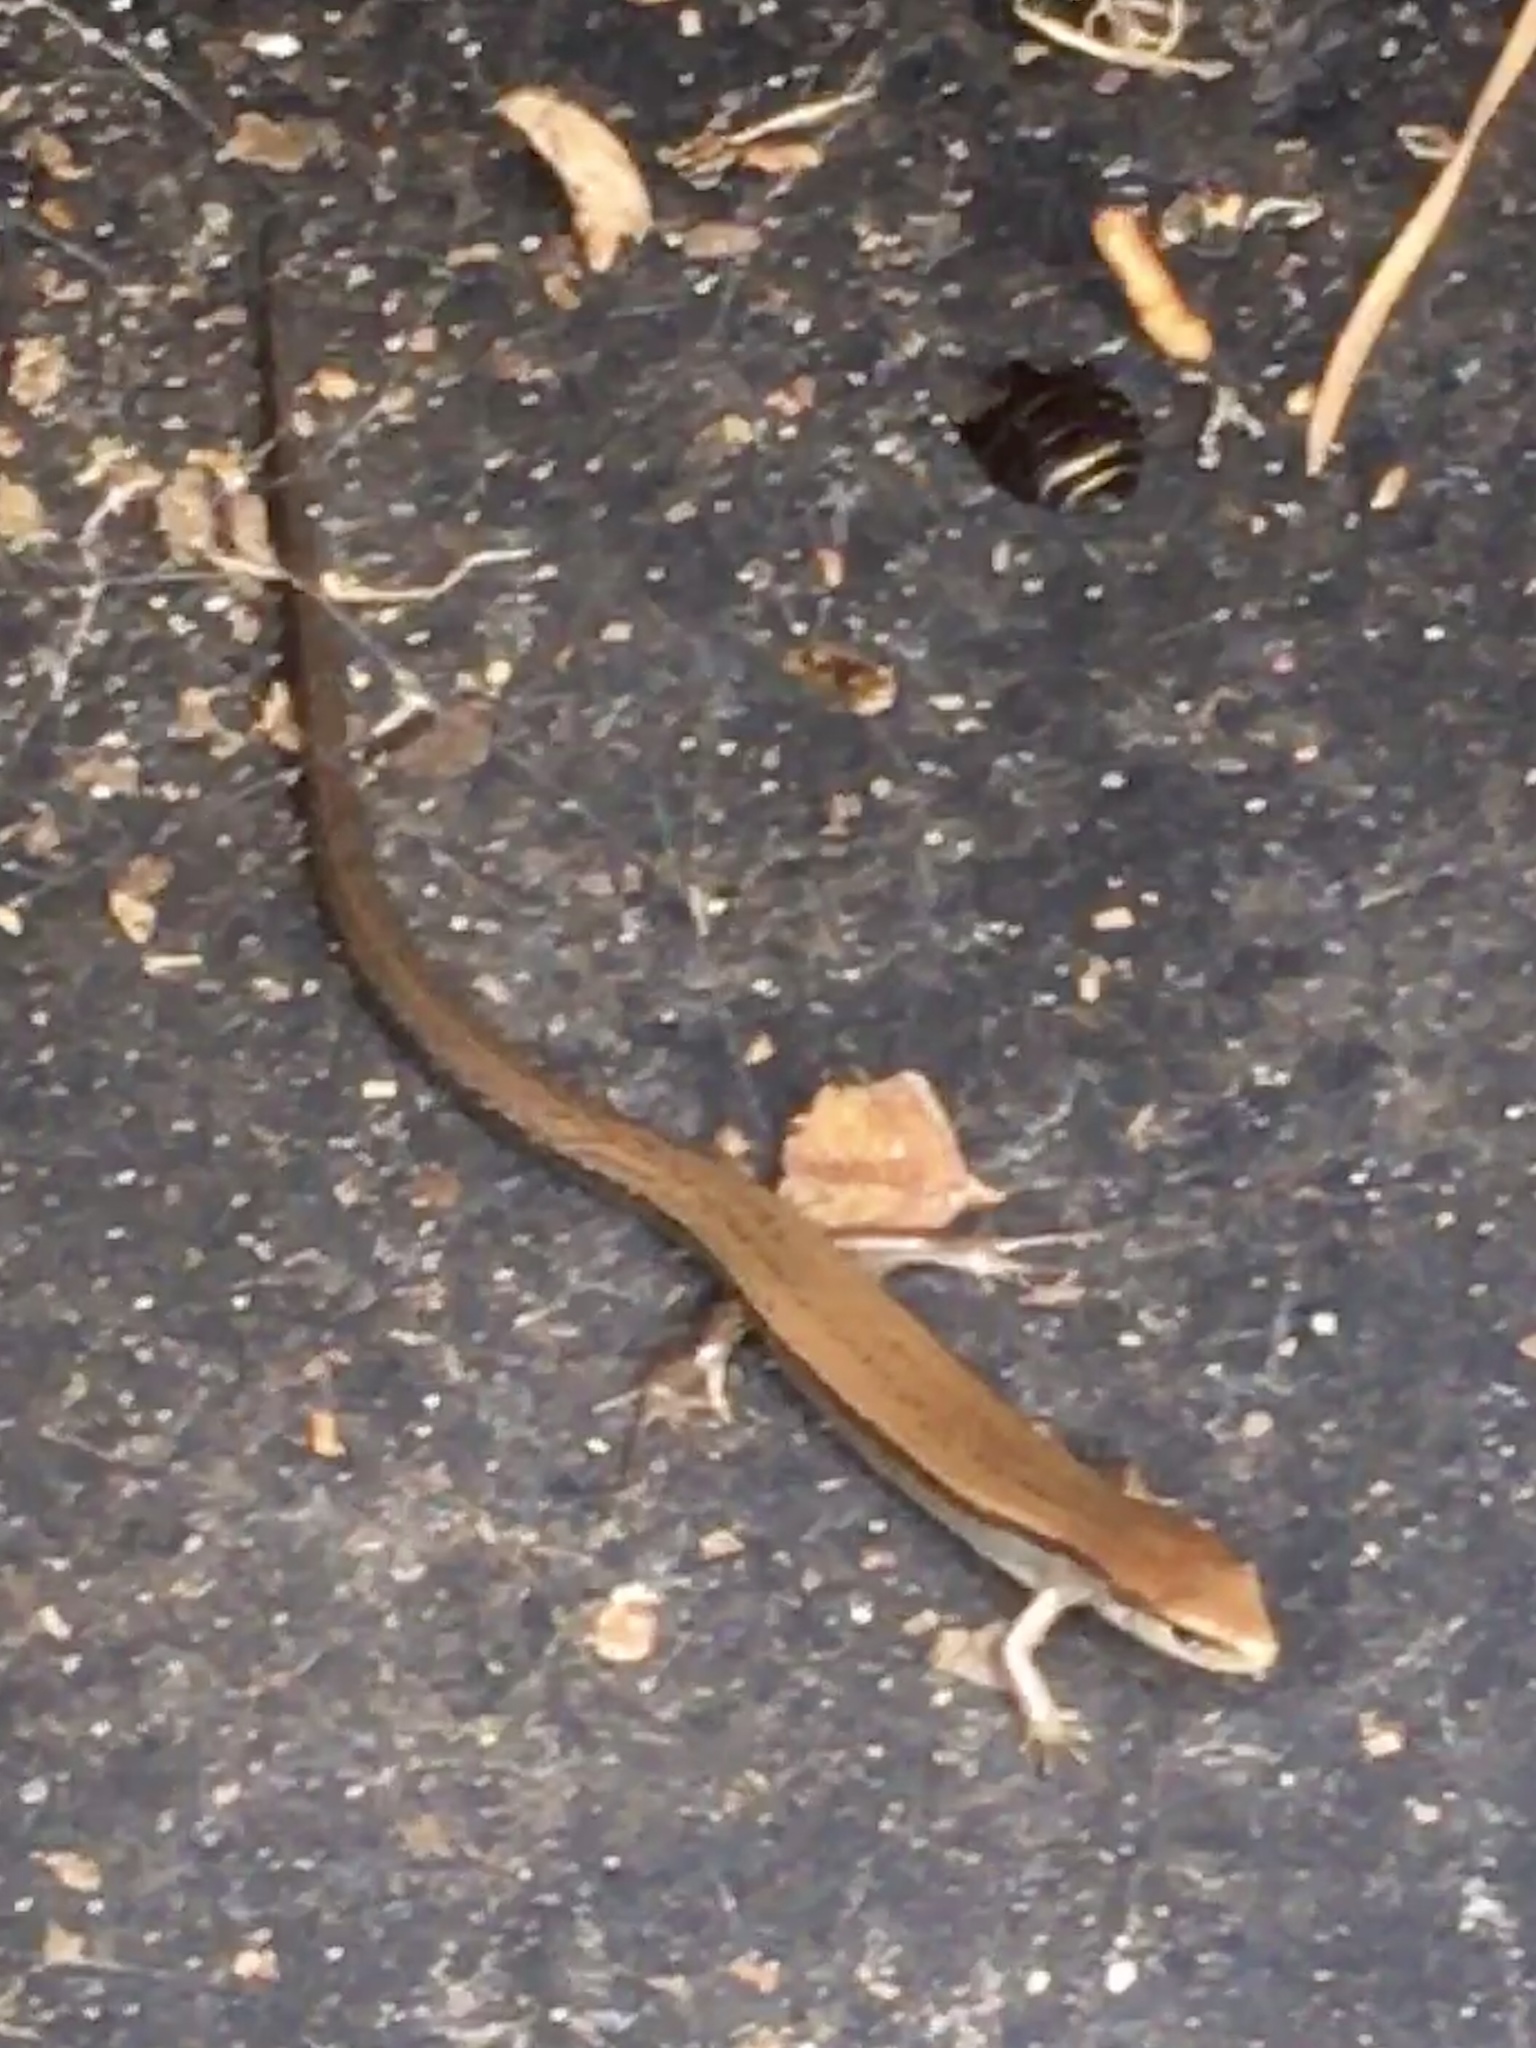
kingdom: Animalia
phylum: Chordata
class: Squamata
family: Scincidae
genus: Scincella
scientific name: Scincella lateralis
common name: Ground skink
